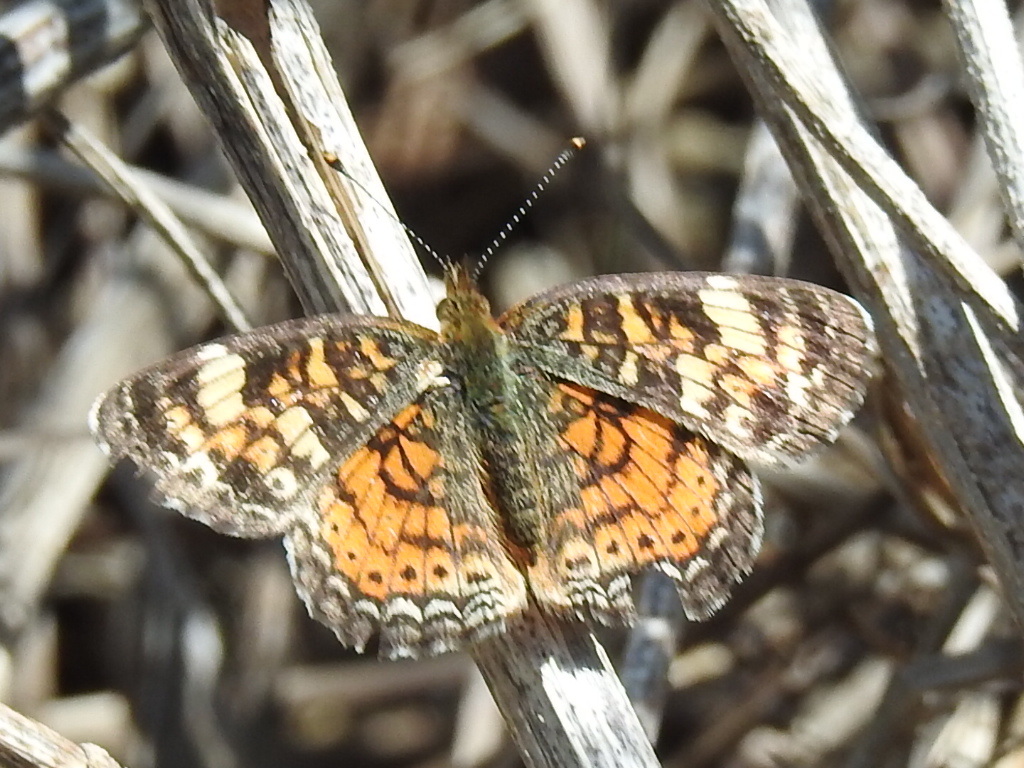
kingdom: Animalia
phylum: Arthropoda
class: Insecta
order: Lepidoptera
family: Nymphalidae
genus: Phyciodes
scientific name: Phyciodes phaon
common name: Phaon crescent
